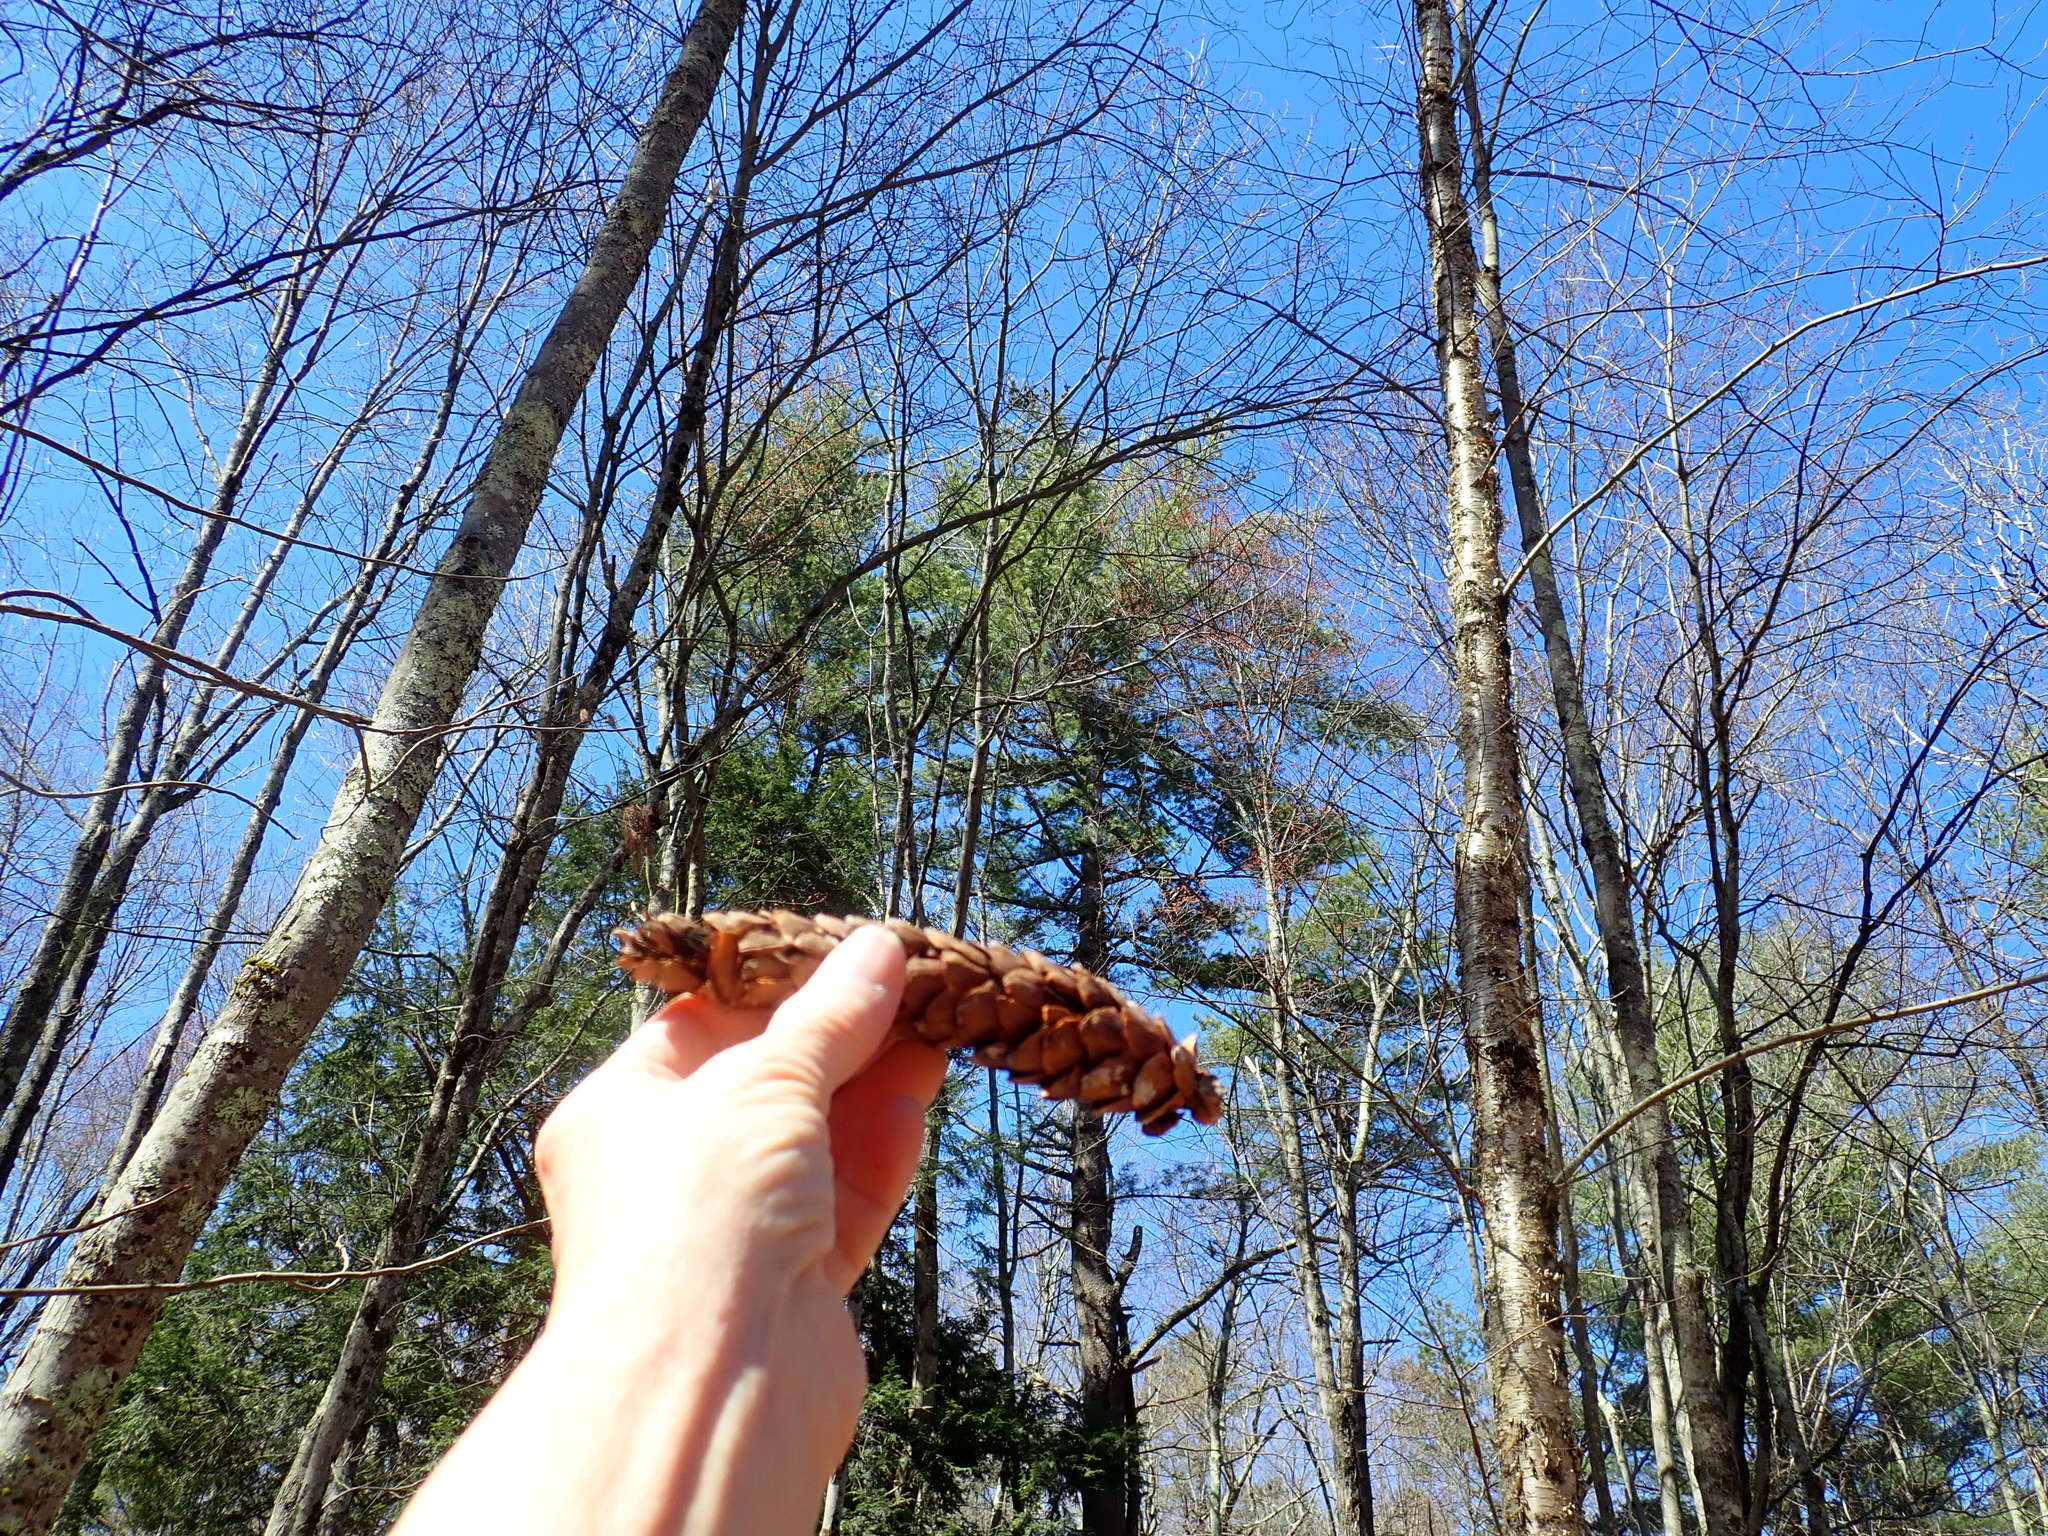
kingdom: Plantae
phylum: Tracheophyta
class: Pinopsida
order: Pinales
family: Pinaceae
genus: Pinus
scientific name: Pinus strobus
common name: Weymouth pine
